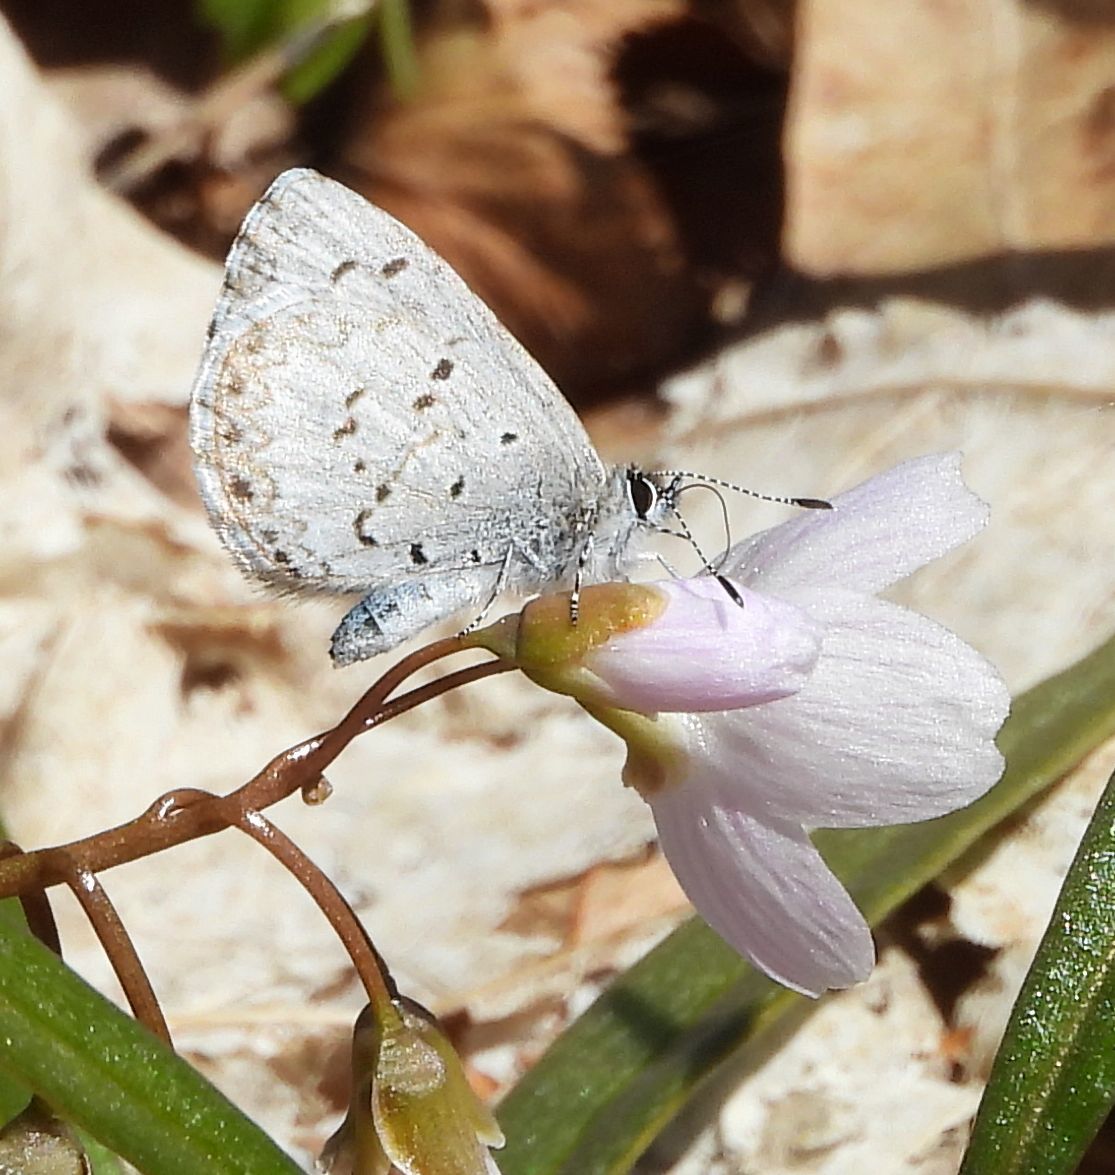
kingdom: Animalia
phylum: Arthropoda
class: Insecta
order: Lepidoptera
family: Lycaenidae
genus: Celastrina
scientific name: Celastrina lucia
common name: Lucia azure
